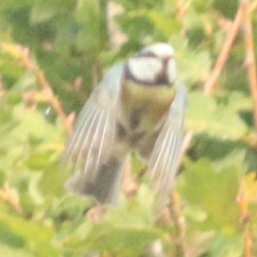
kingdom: Animalia
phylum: Chordata
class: Aves
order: Passeriformes
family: Paridae
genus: Cyanistes
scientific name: Cyanistes caeruleus
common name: Eurasian blue tit
